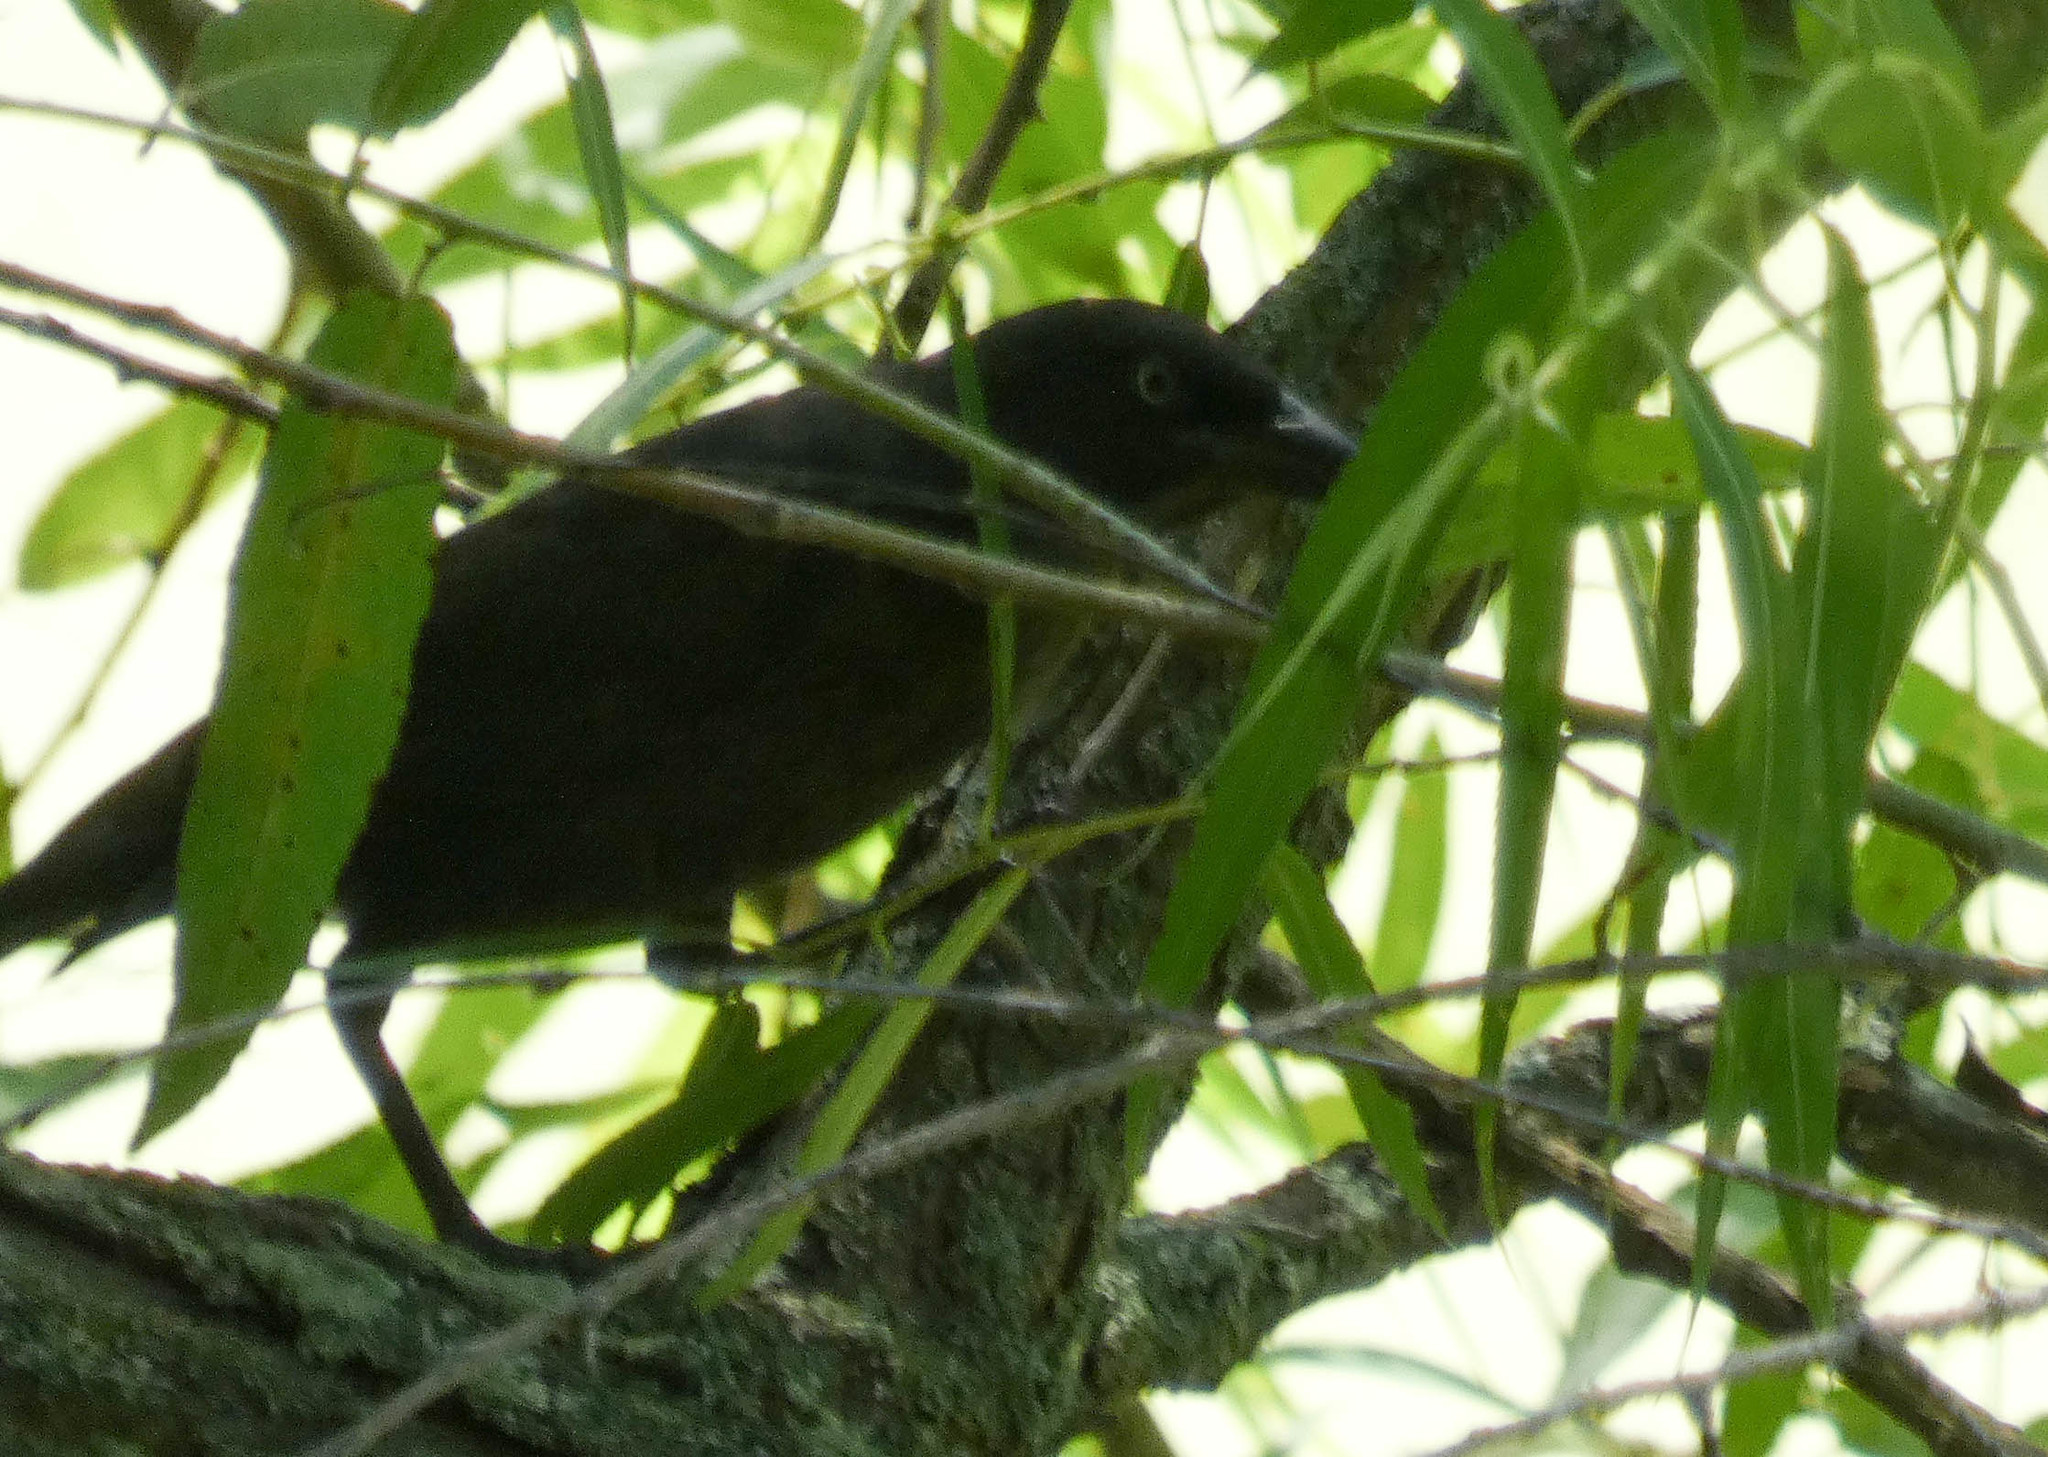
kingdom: Animalia
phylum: Chordata
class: Aves
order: Passeriformes
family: Icteridae
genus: Quiscalus
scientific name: Quiscalus quiscula
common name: Common grackle
